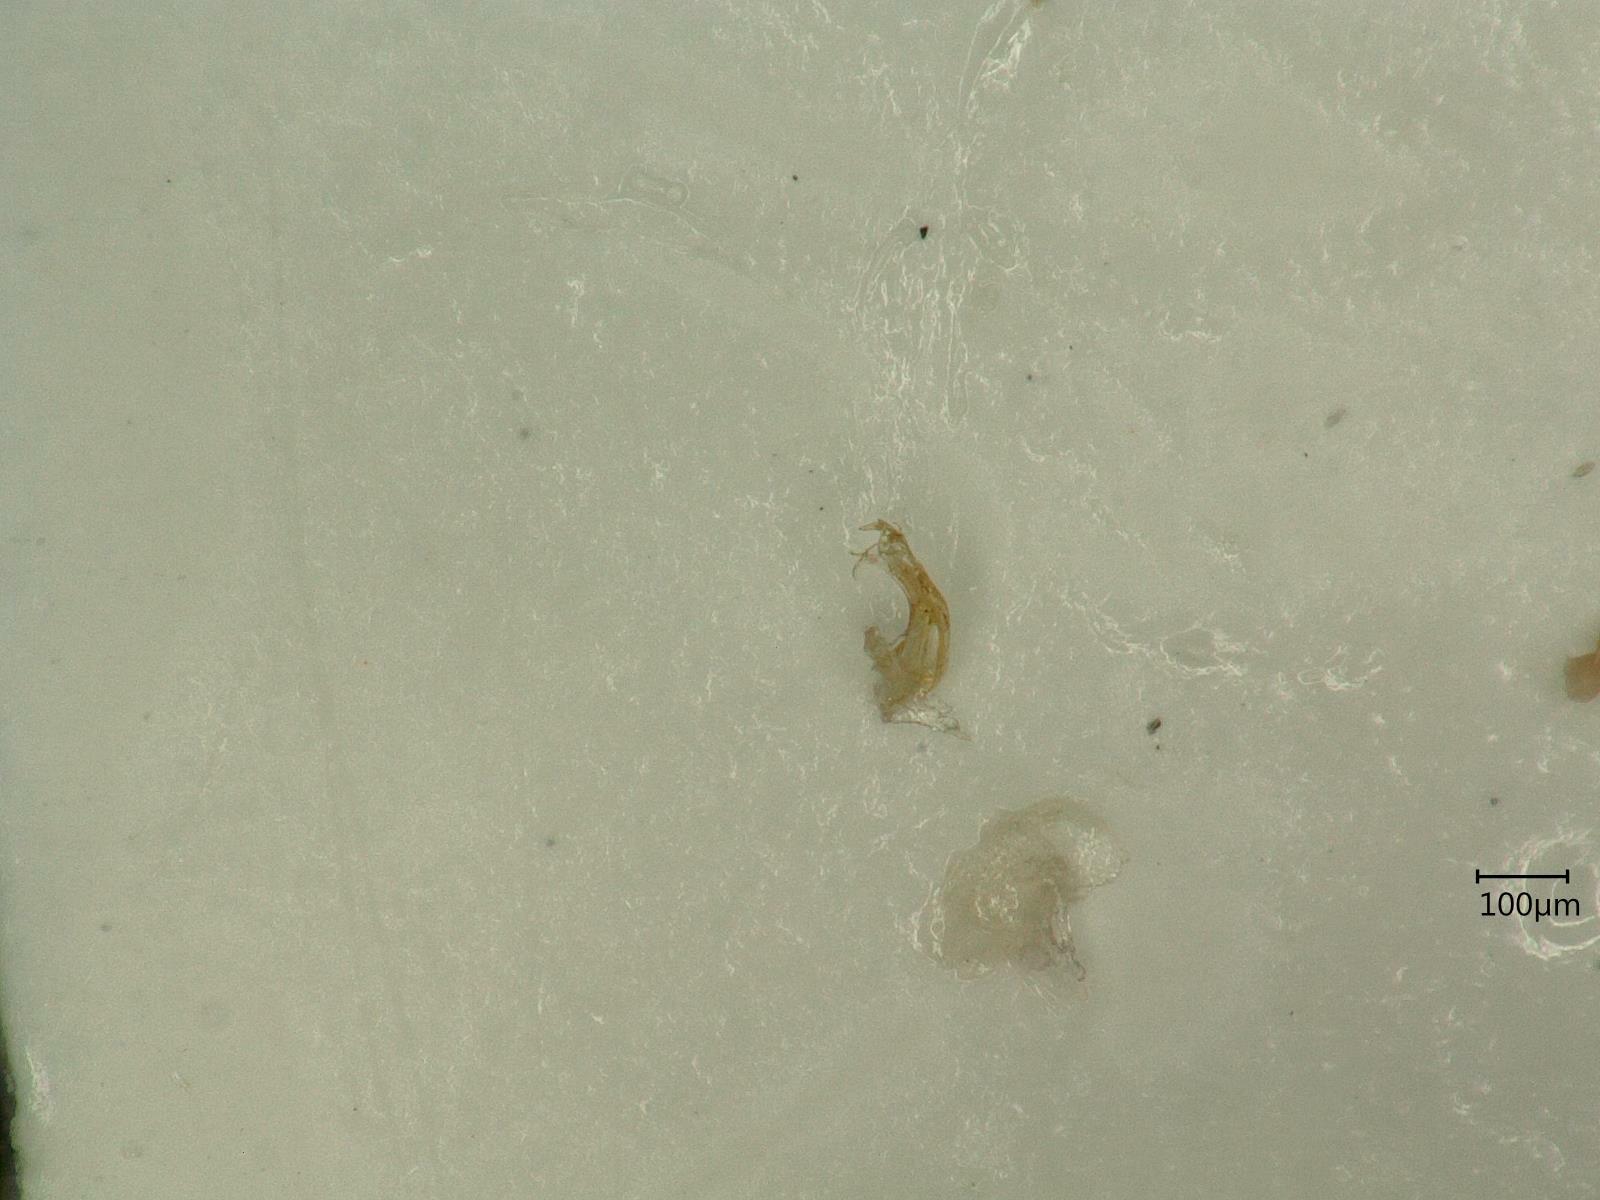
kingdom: Animalia
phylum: Arthropoda
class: Insecta
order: Hemiptera
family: Cicadellidae
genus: Ribautiana
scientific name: Ribautiana tenerrima
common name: Bramble leafhopper
